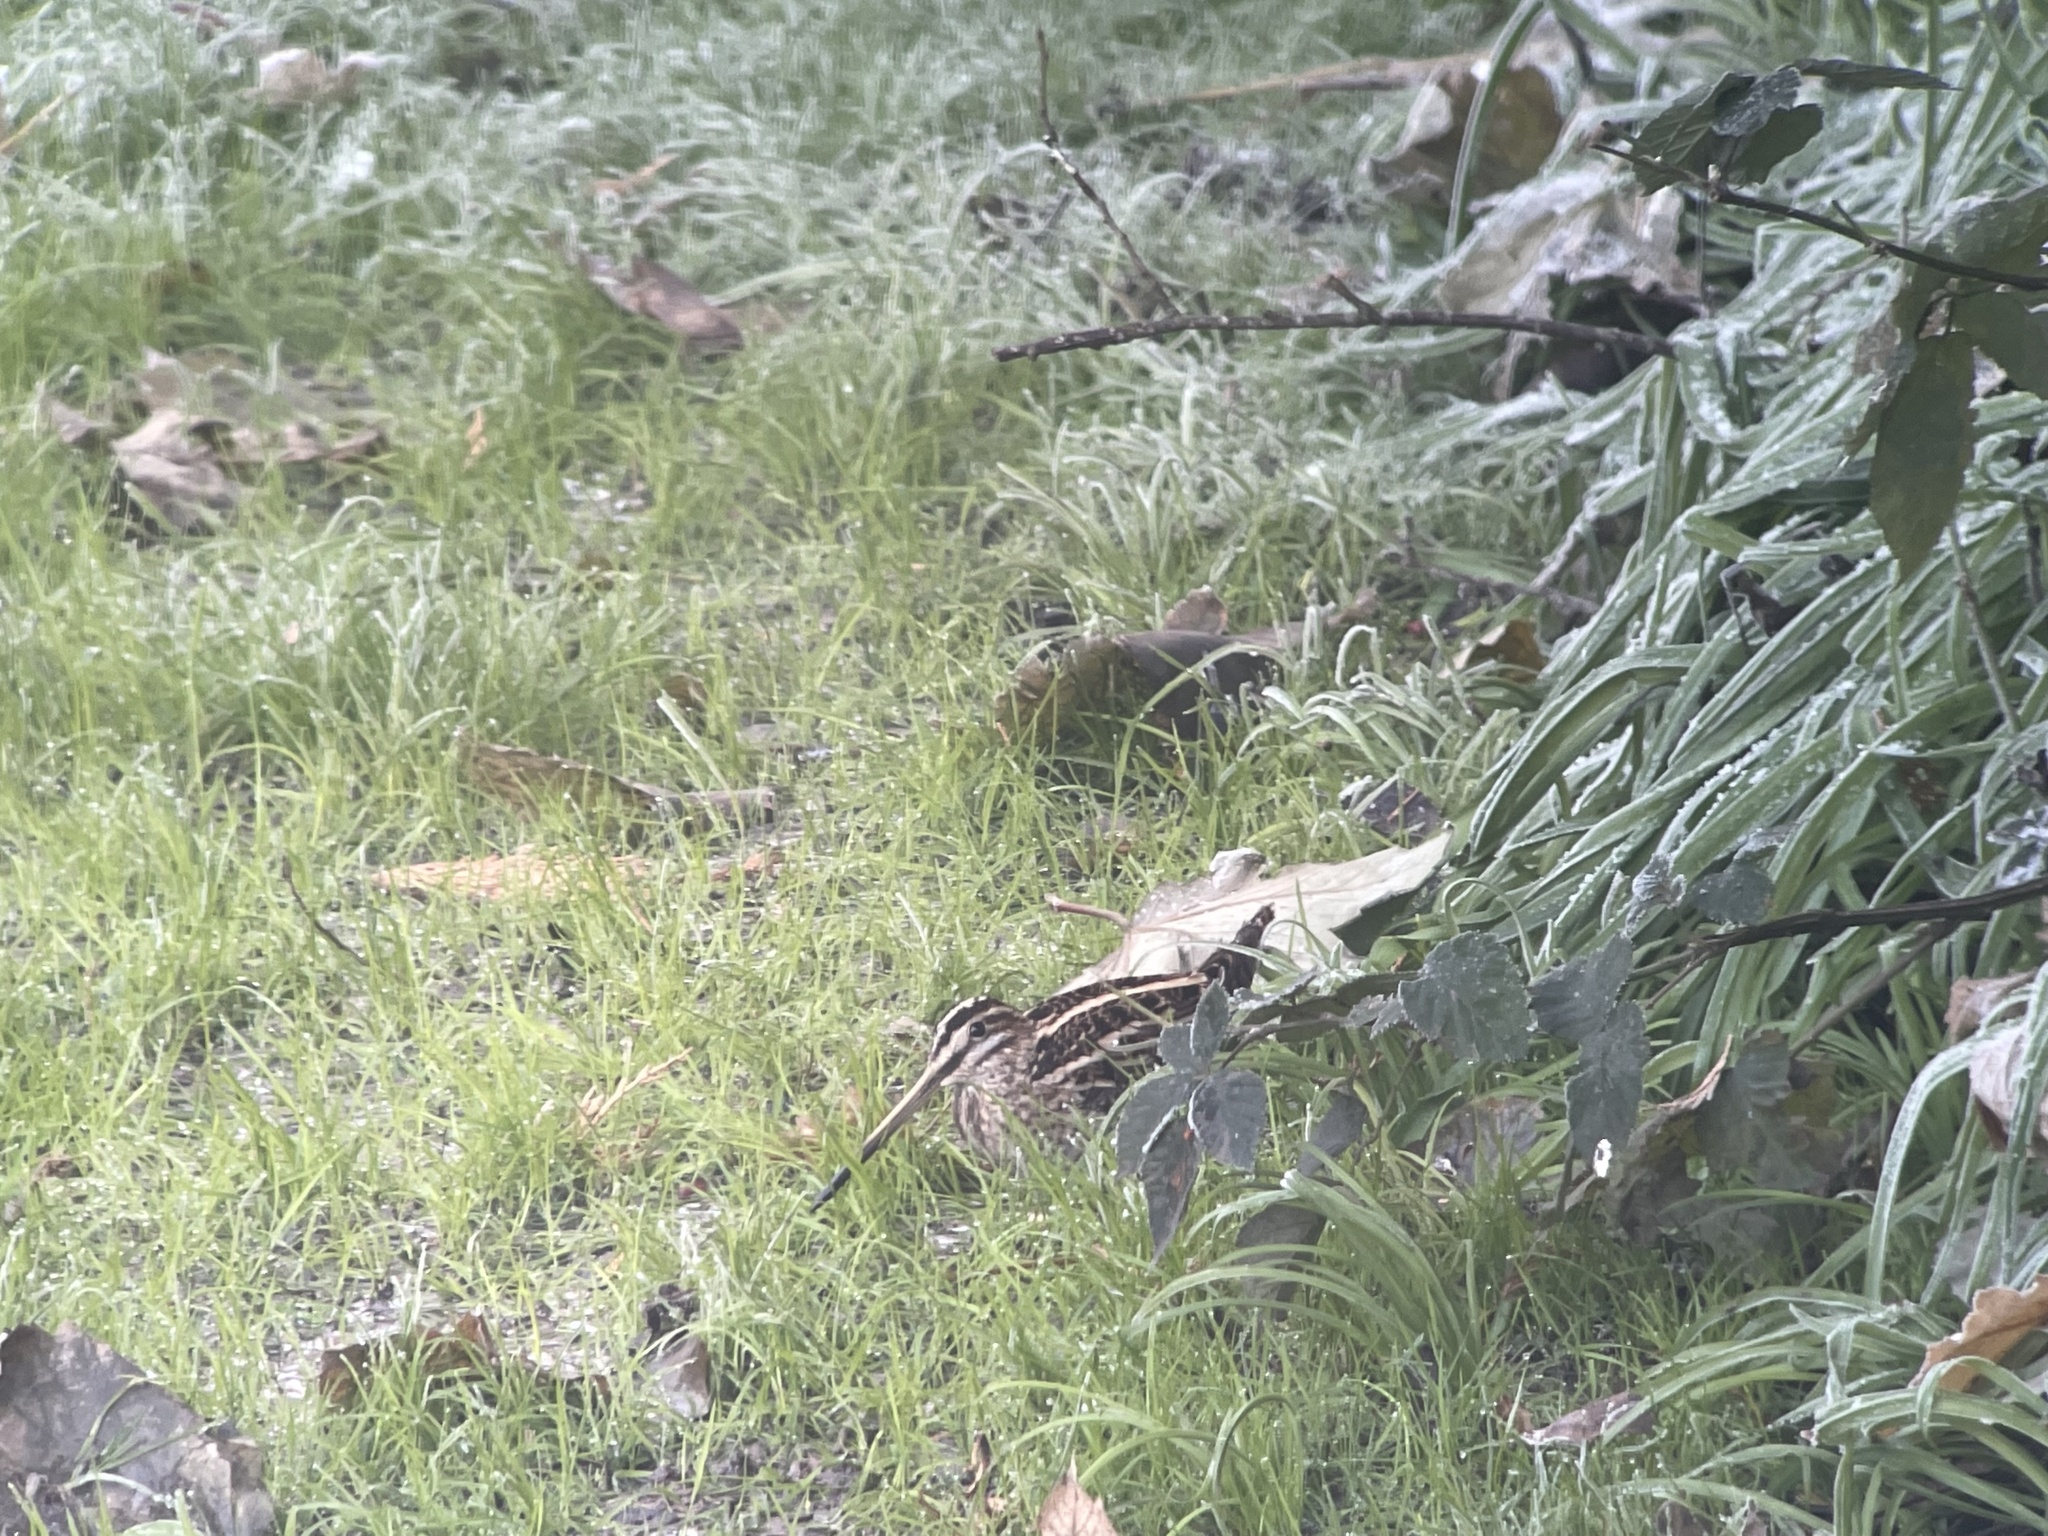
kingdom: Animalia
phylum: Chordata
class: Aves
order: Charadriiformes
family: Scolopacidae
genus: Gallinago
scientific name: Gallinago gallinago
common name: Common snipe
